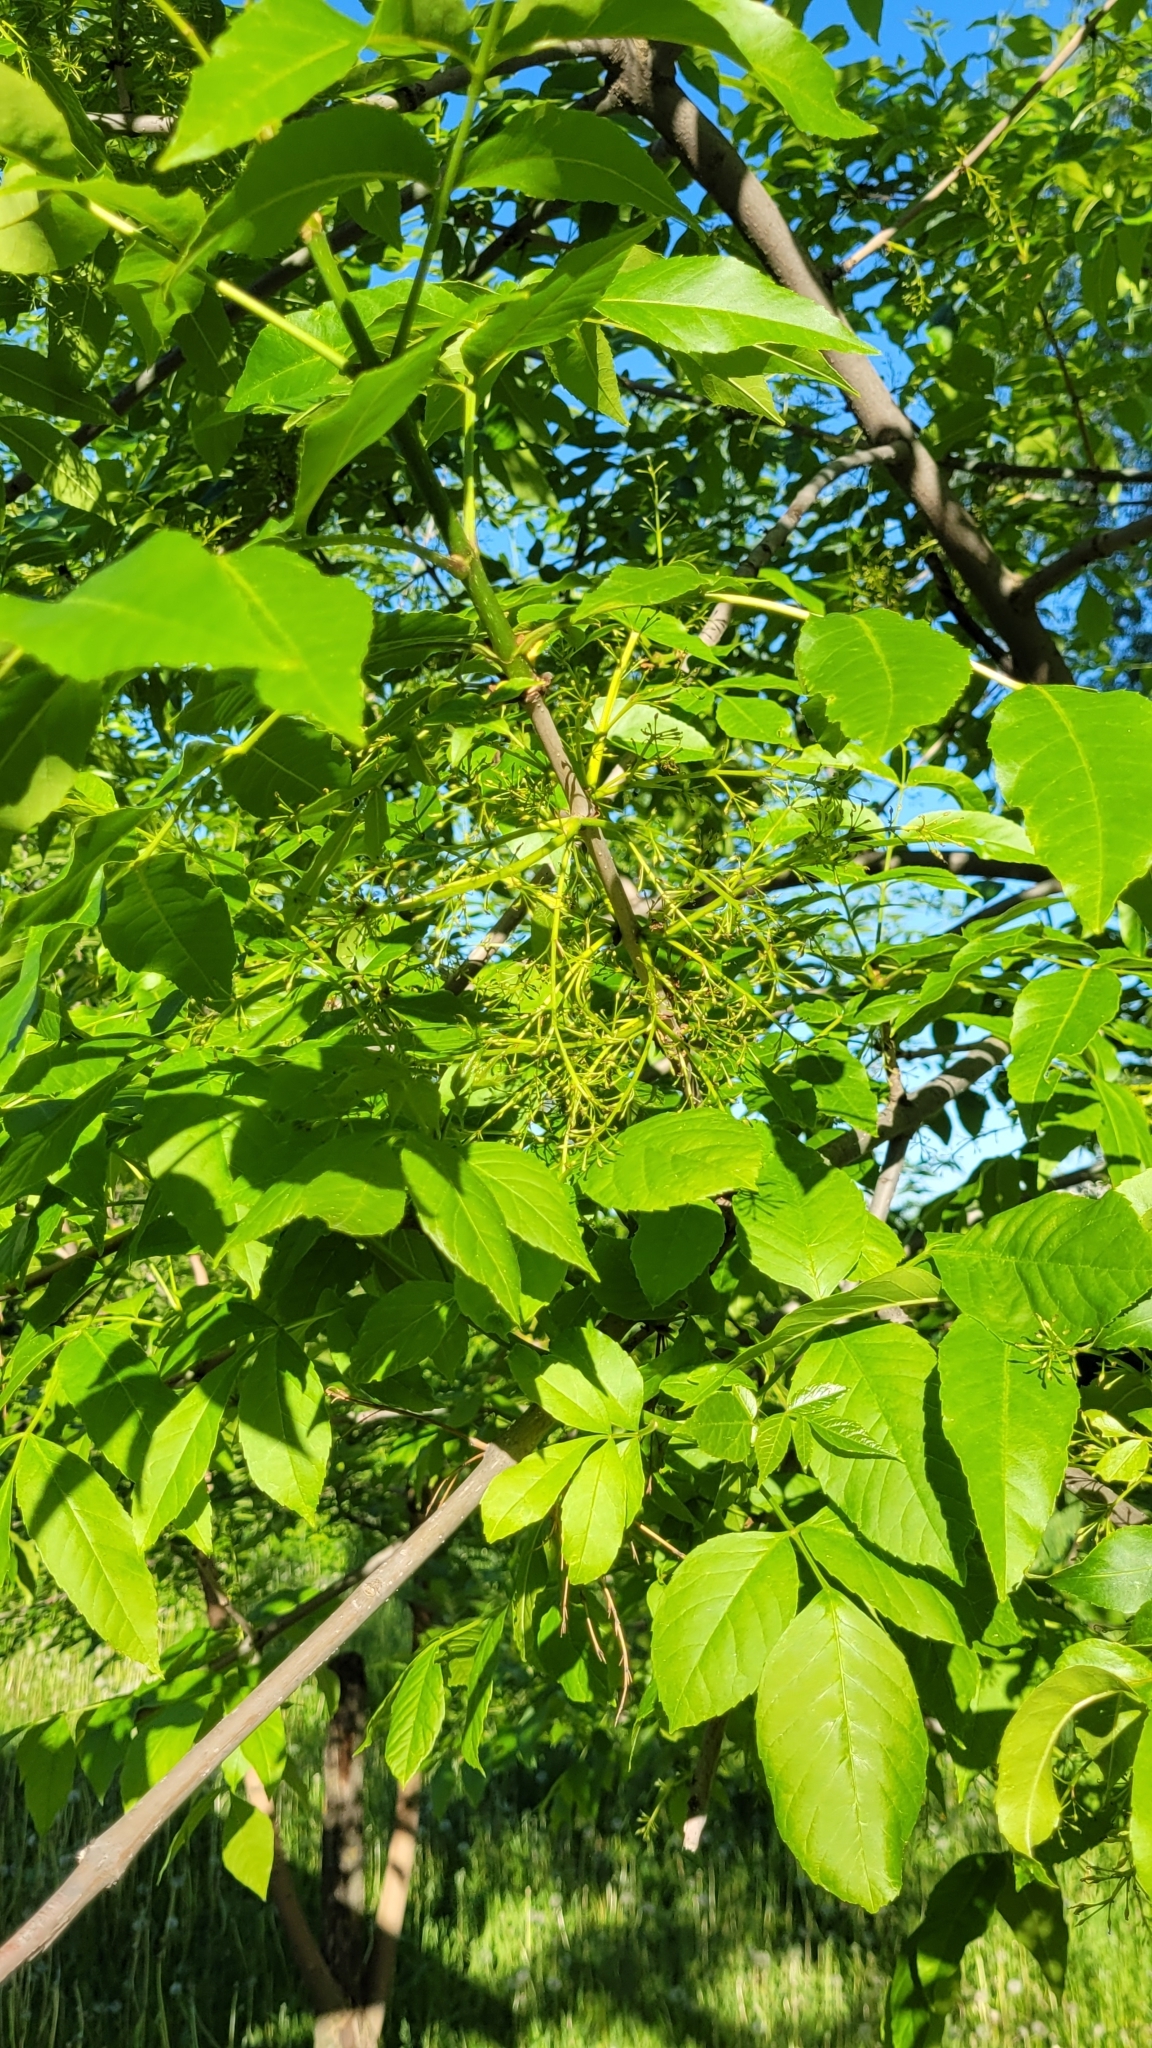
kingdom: Plantae
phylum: Tracheophyta
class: Magnoliopsida
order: Lamiales
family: Oleaceae
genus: Fraxinus
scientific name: Fraxinus pennsylvanica
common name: Green ash
